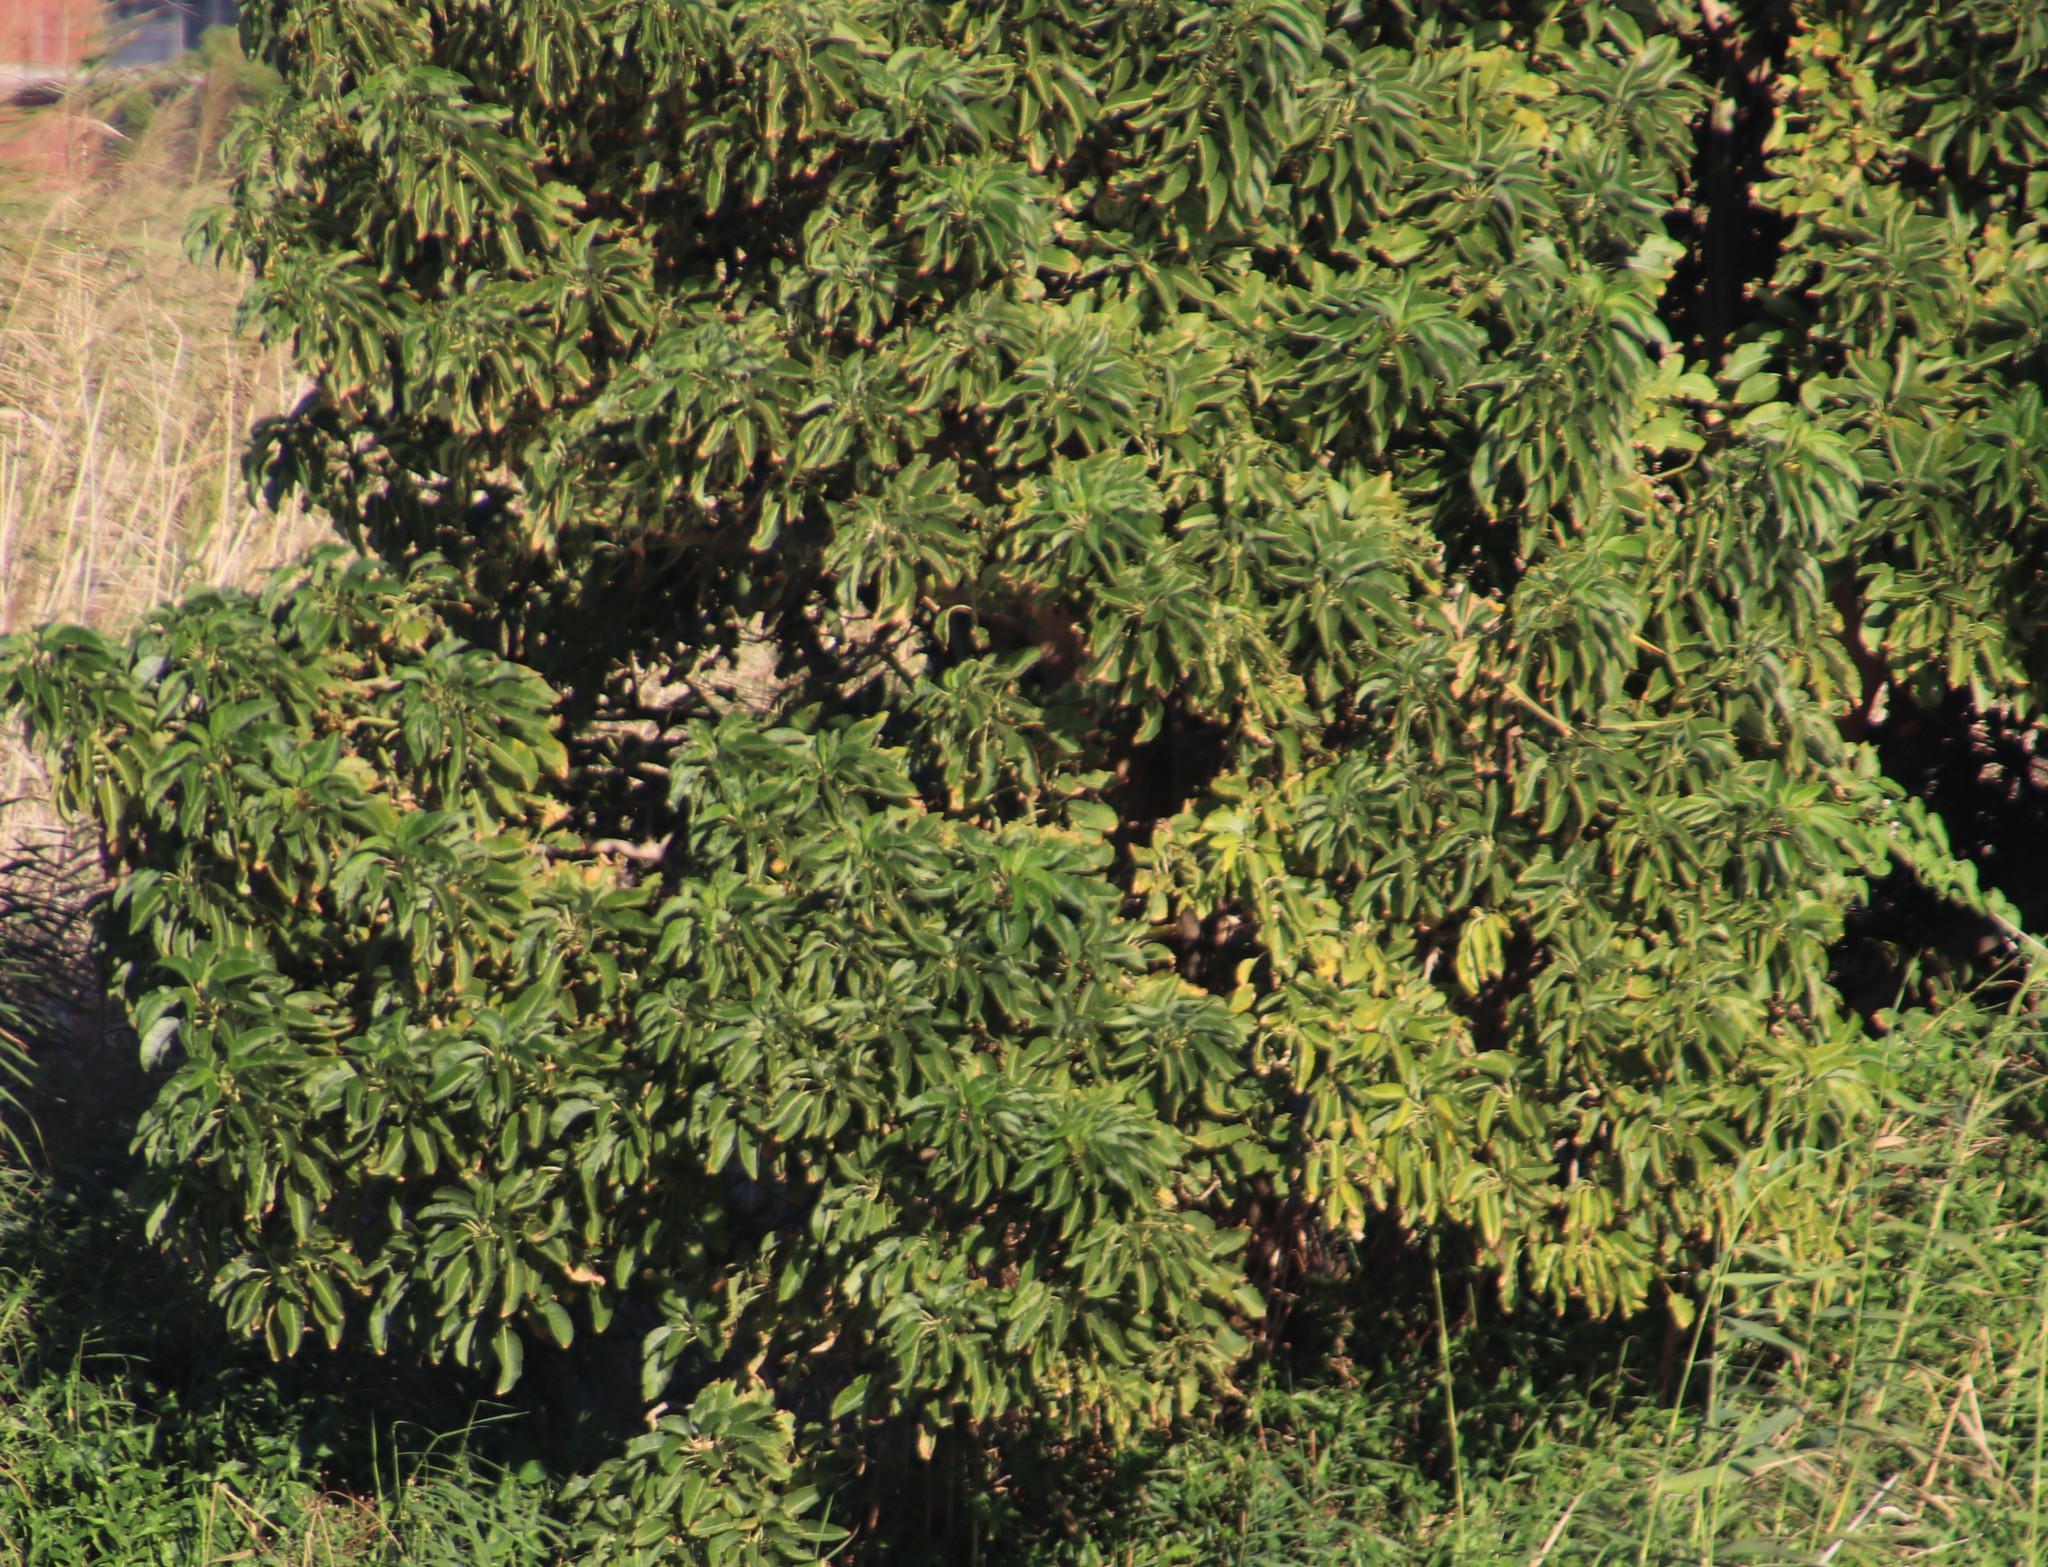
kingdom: Plantae
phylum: Tracheophyta
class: Magnoliopsida
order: Caryophyllales
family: Phytolaccaceae
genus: Phytolacca
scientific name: Phytolacca dioica
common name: Pokeweed
